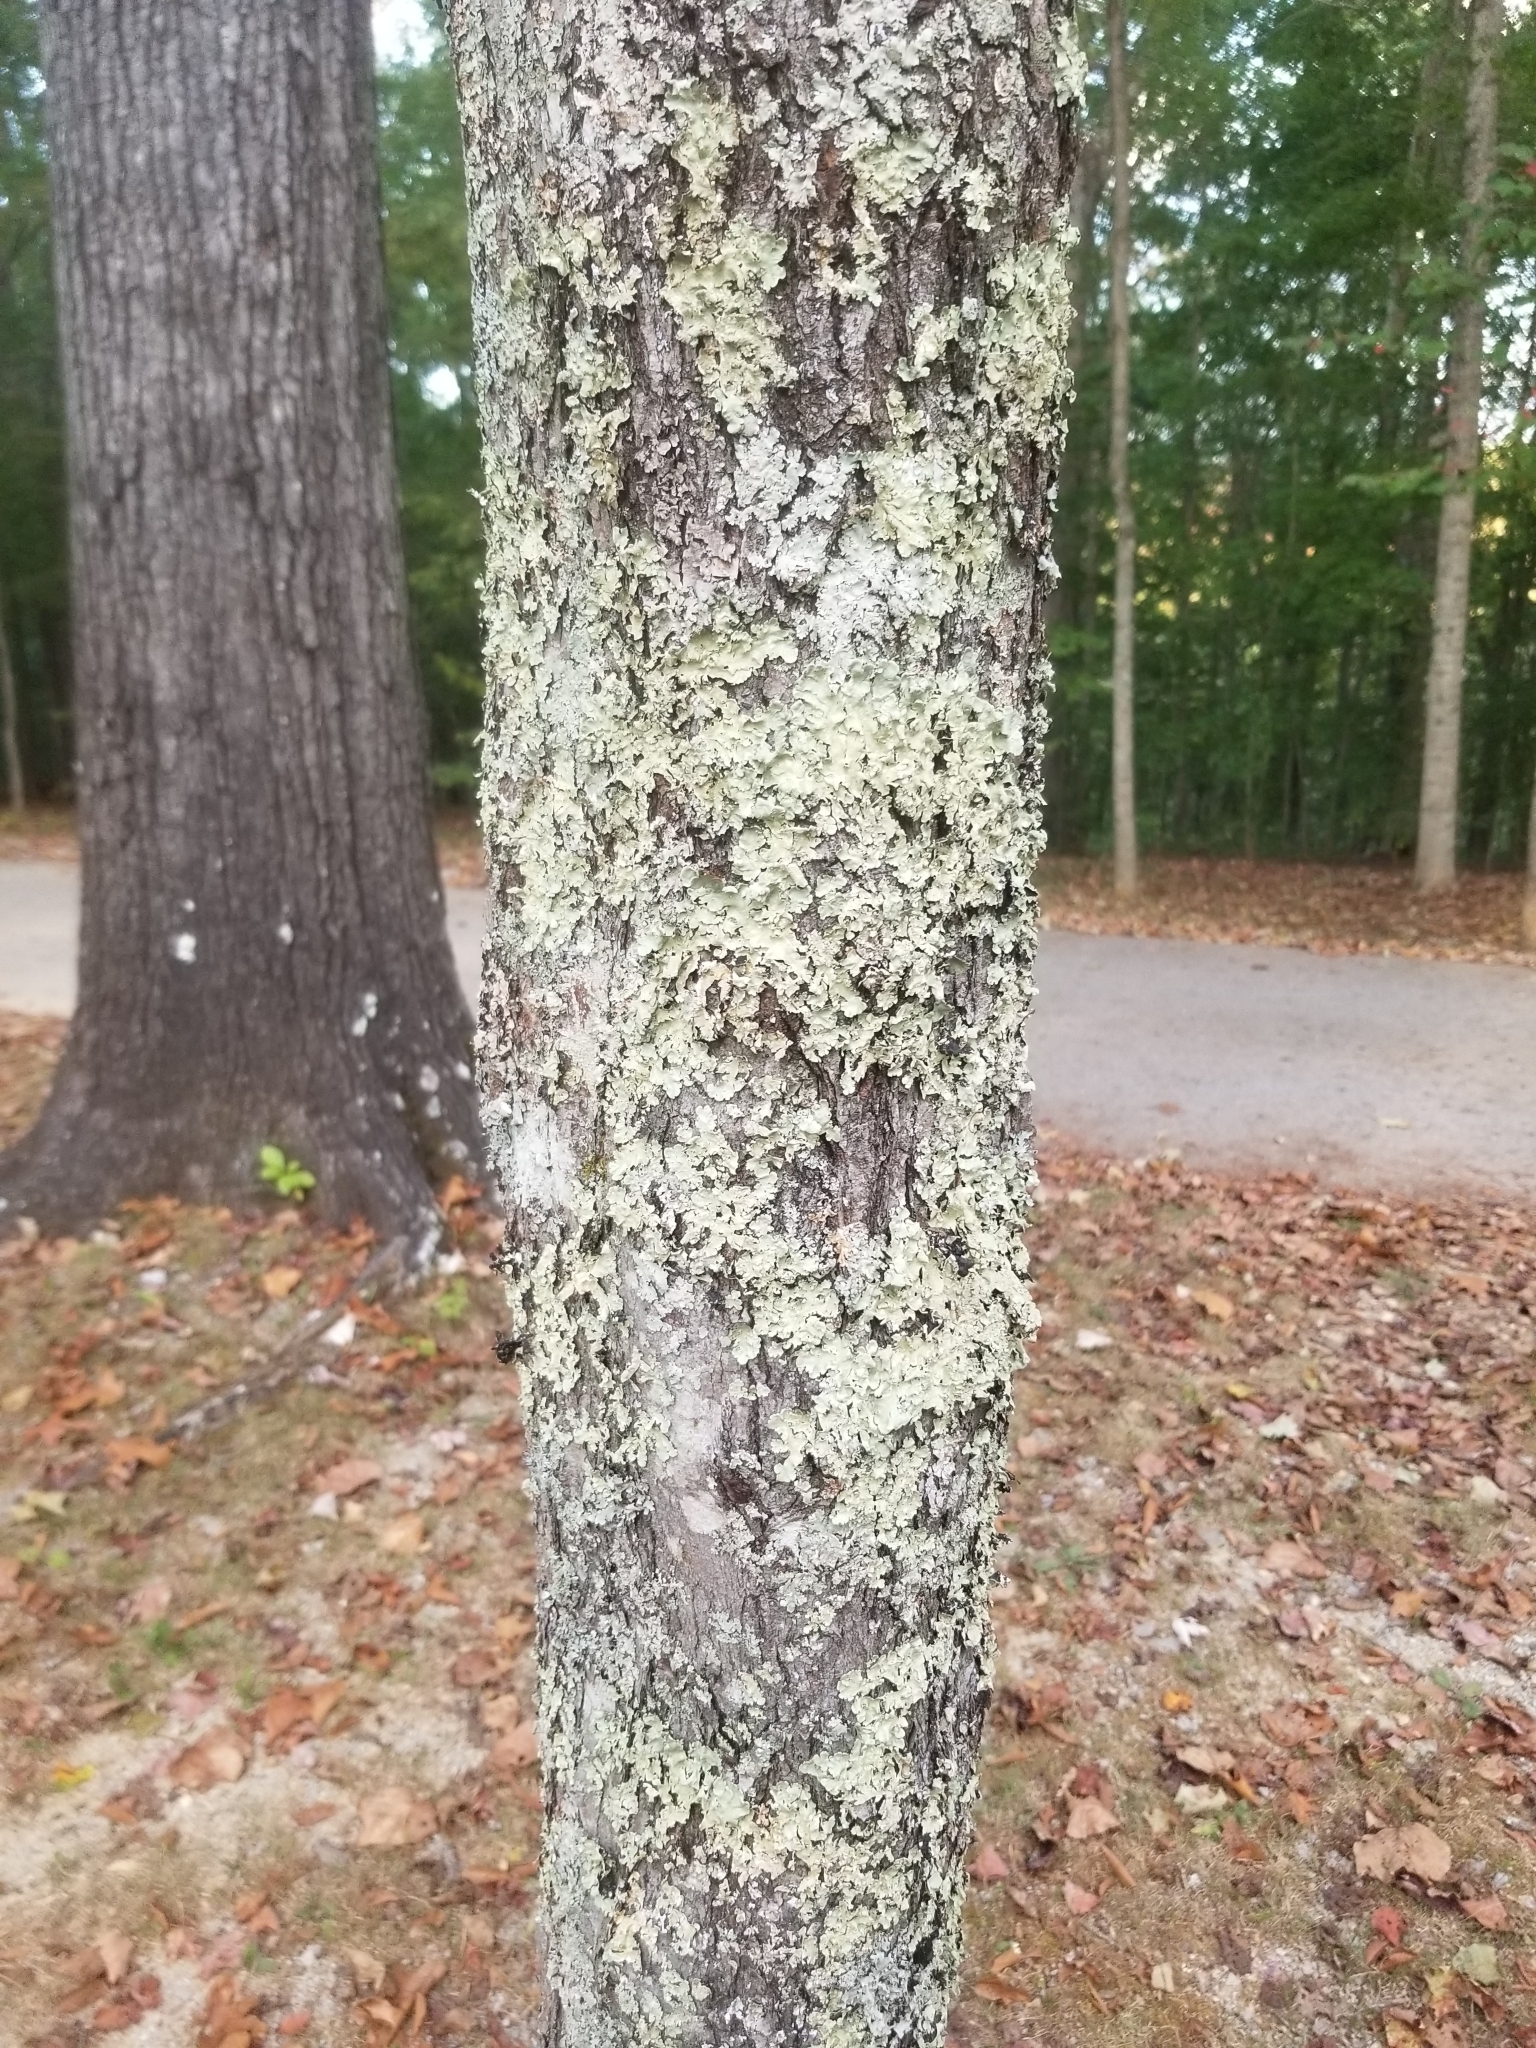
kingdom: Fungi
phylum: Ascomycota
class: Lecanoromycetes
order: Lecanorales
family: Parmeliaceae
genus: Flavoparmelia
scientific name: Flavoparmelia caperata
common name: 40-mile per hour lichen
